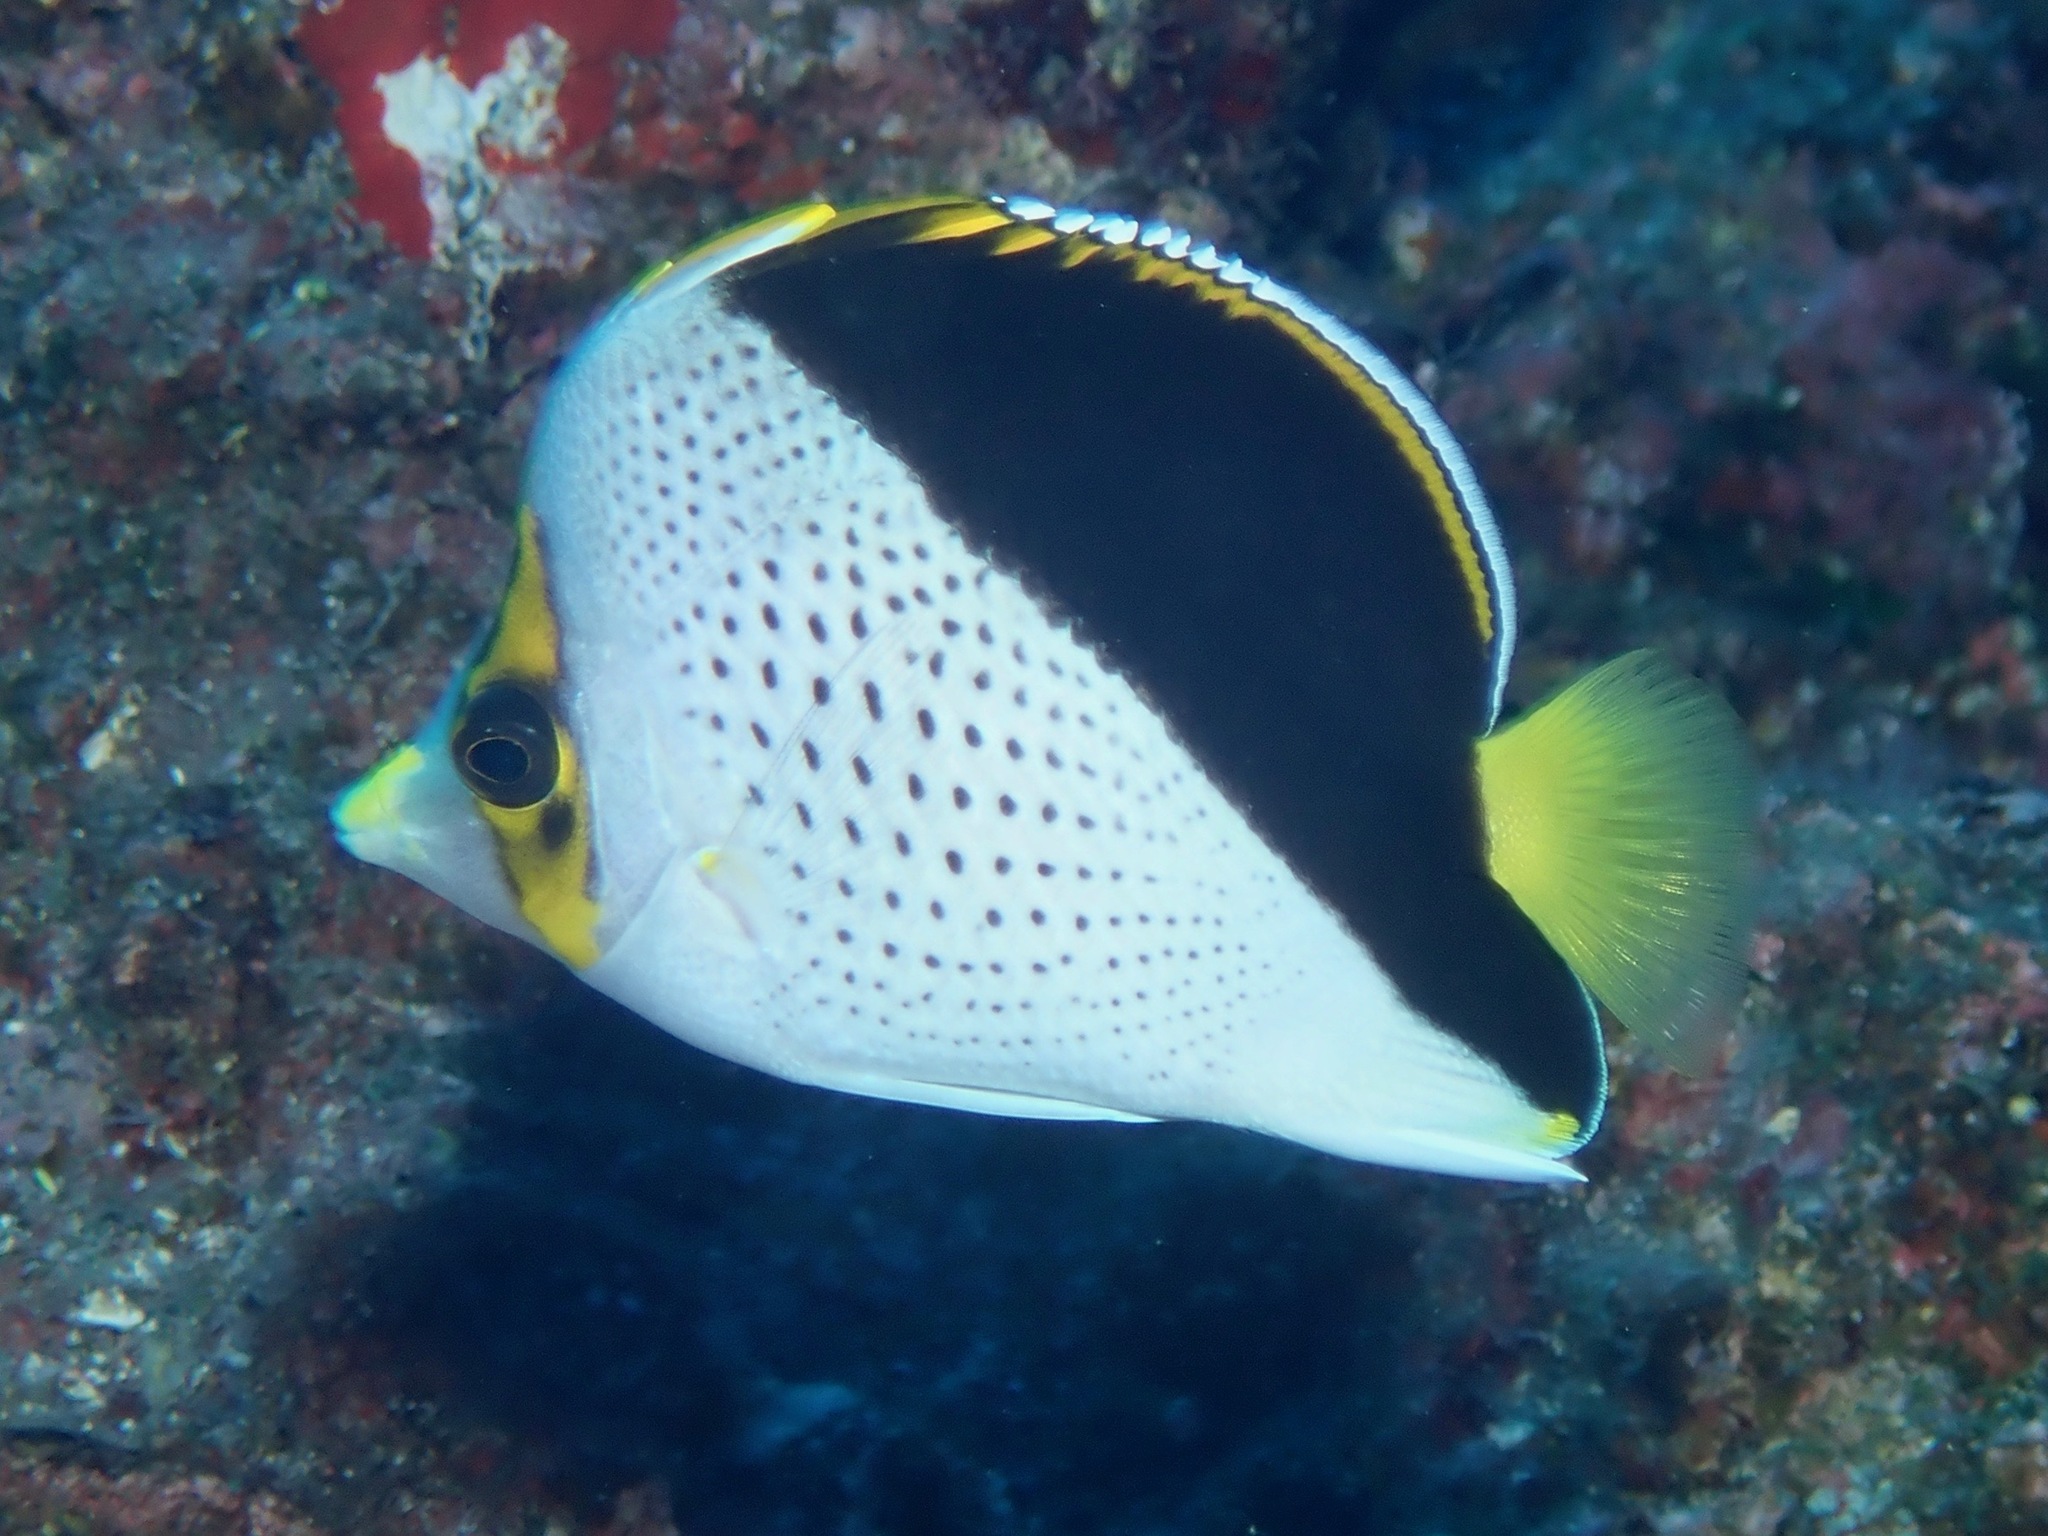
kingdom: Animalia
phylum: Chordata
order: Perciformes
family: Chaetodontidae
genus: Chaetodon
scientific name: Chaetodon tinkeri
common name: Tinker's butterflyfish
